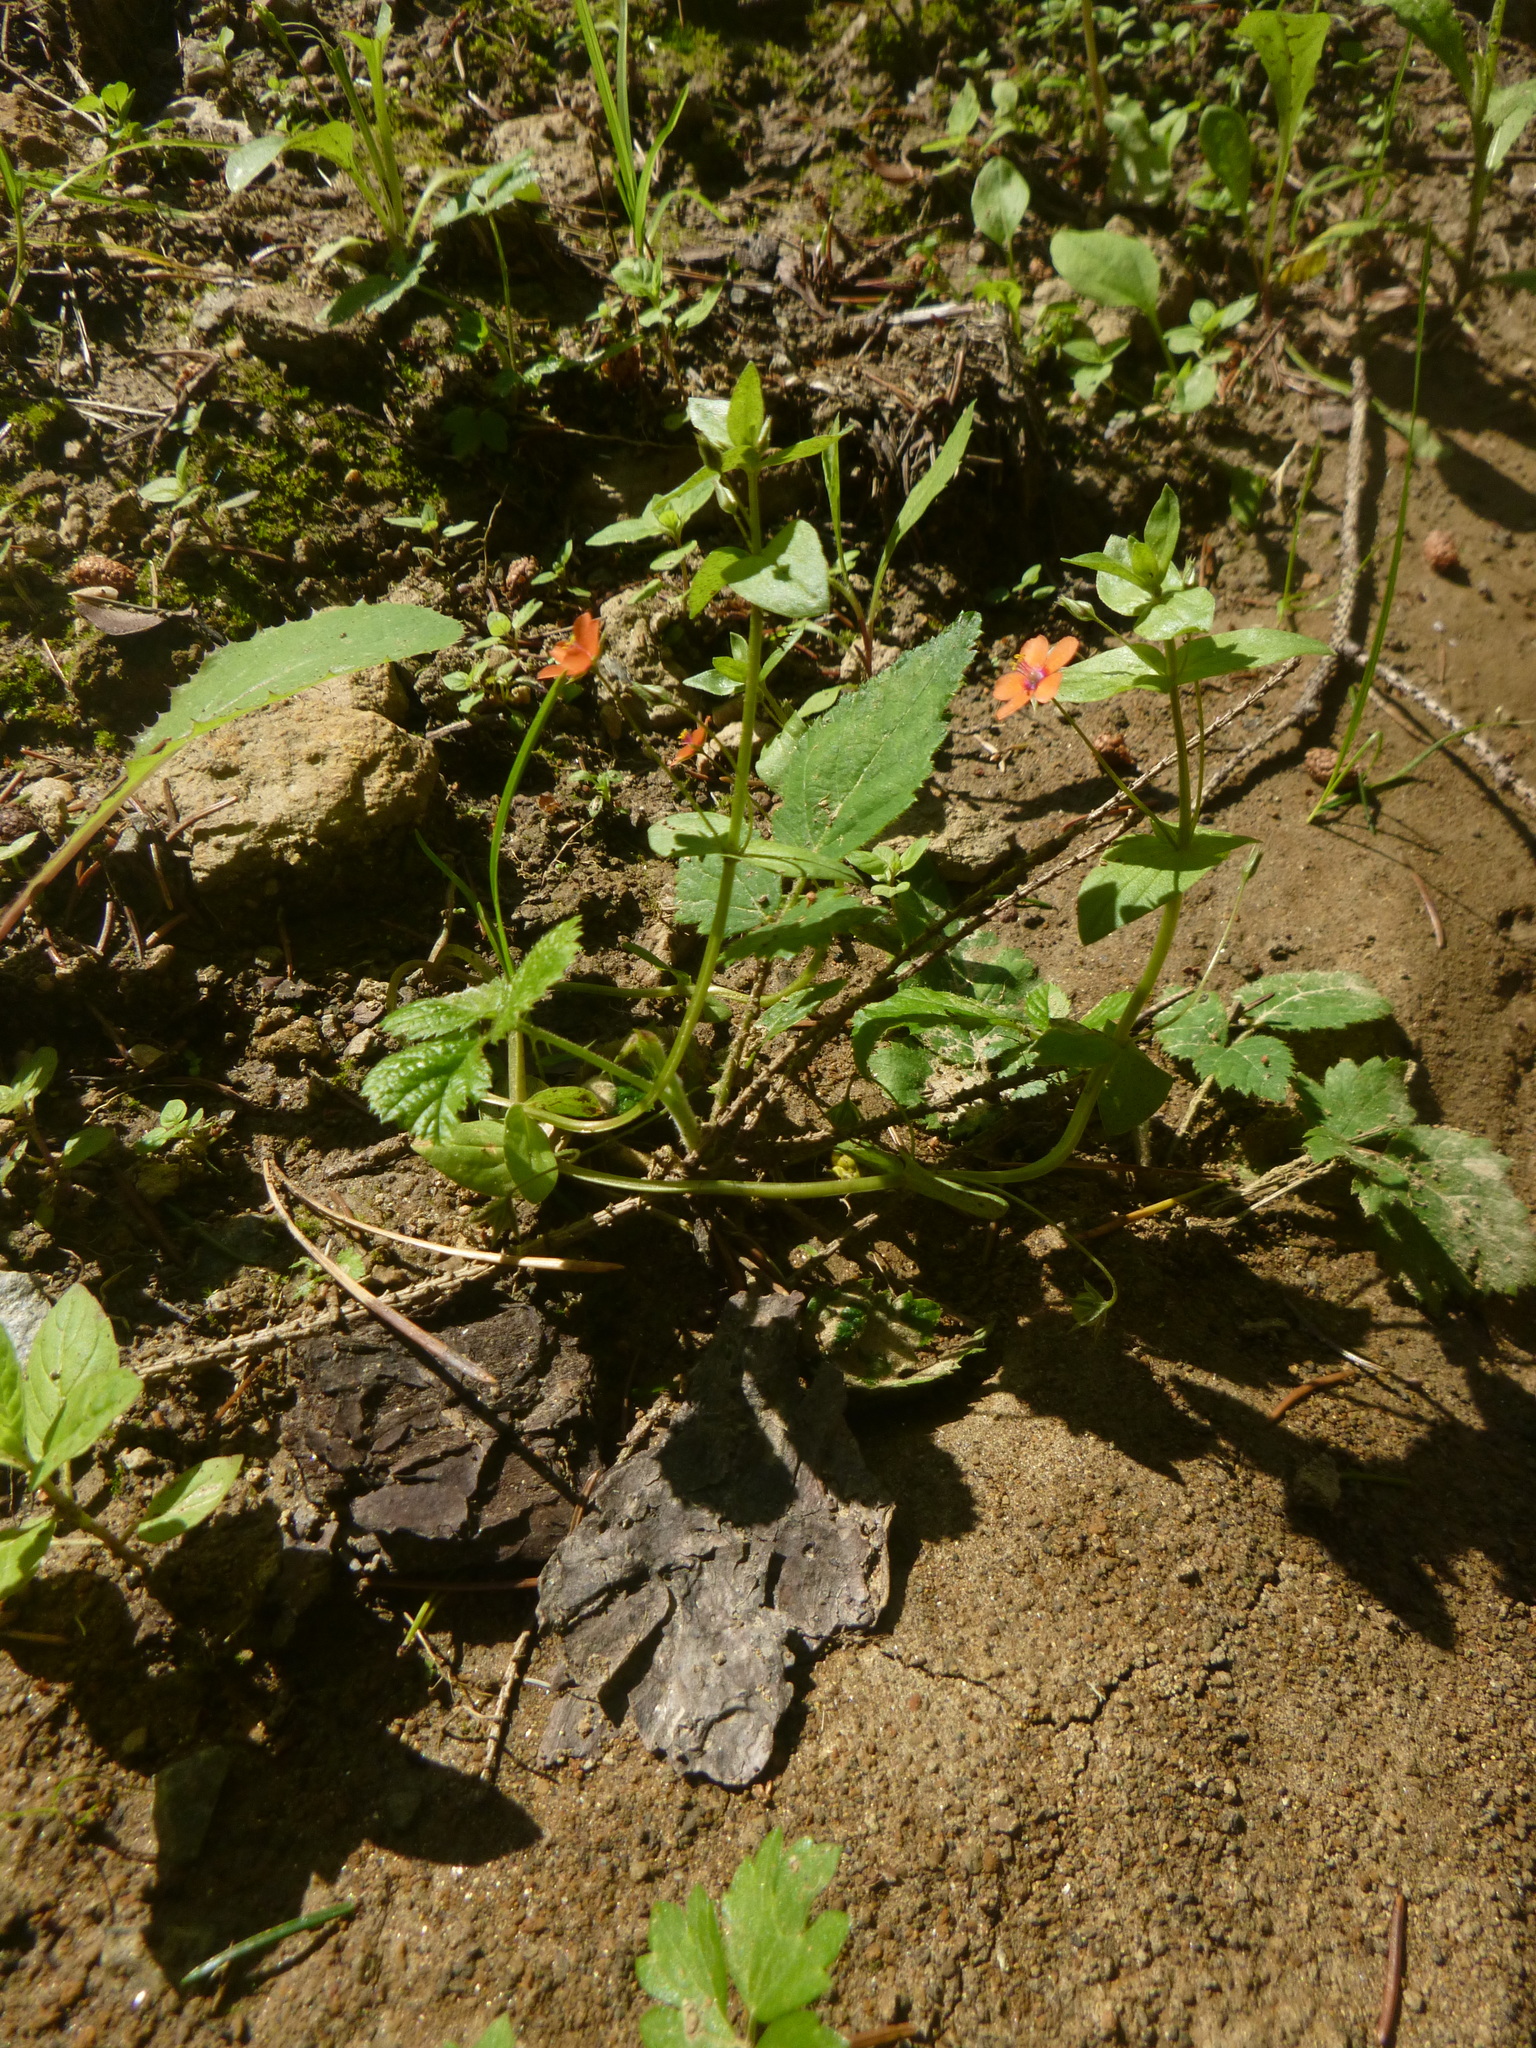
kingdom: Plantae
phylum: Tracheophyta
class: Magnoliopsida
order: Ericales
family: Primulaceae
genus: Lysimachia
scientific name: Lysimachia arvensis
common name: Scarlet pimpernel
